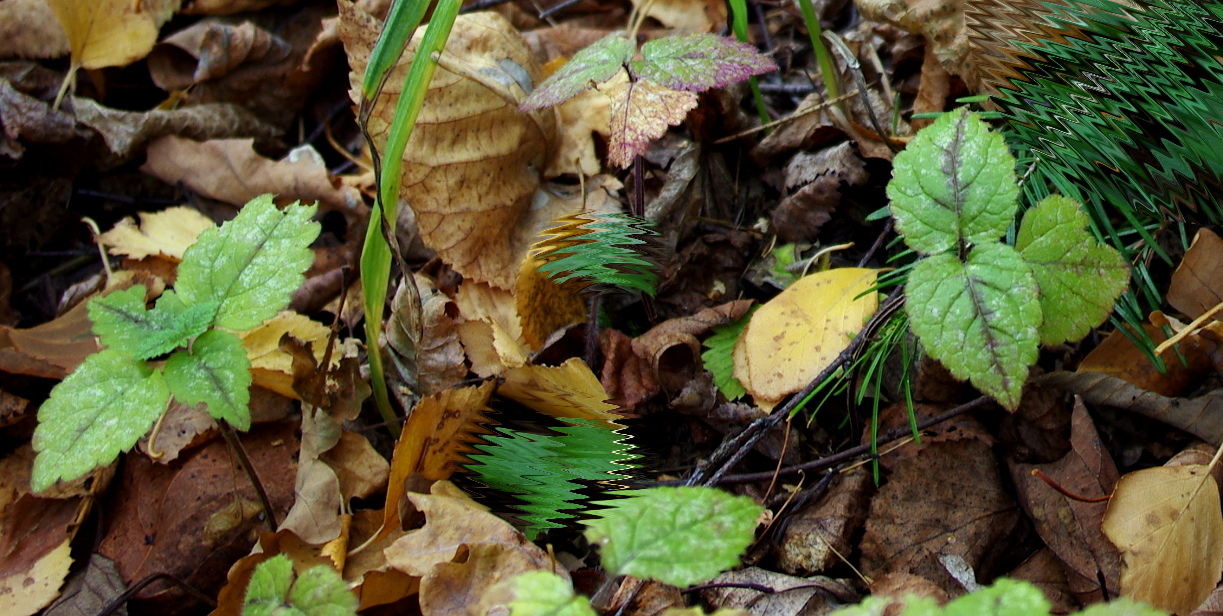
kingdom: Plantae
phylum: Tracheophyta
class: Magnoliopsida
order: Lamiales
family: Lamiaceae
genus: Lamium
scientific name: Lamium galeobdolon
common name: Yellow archangel
